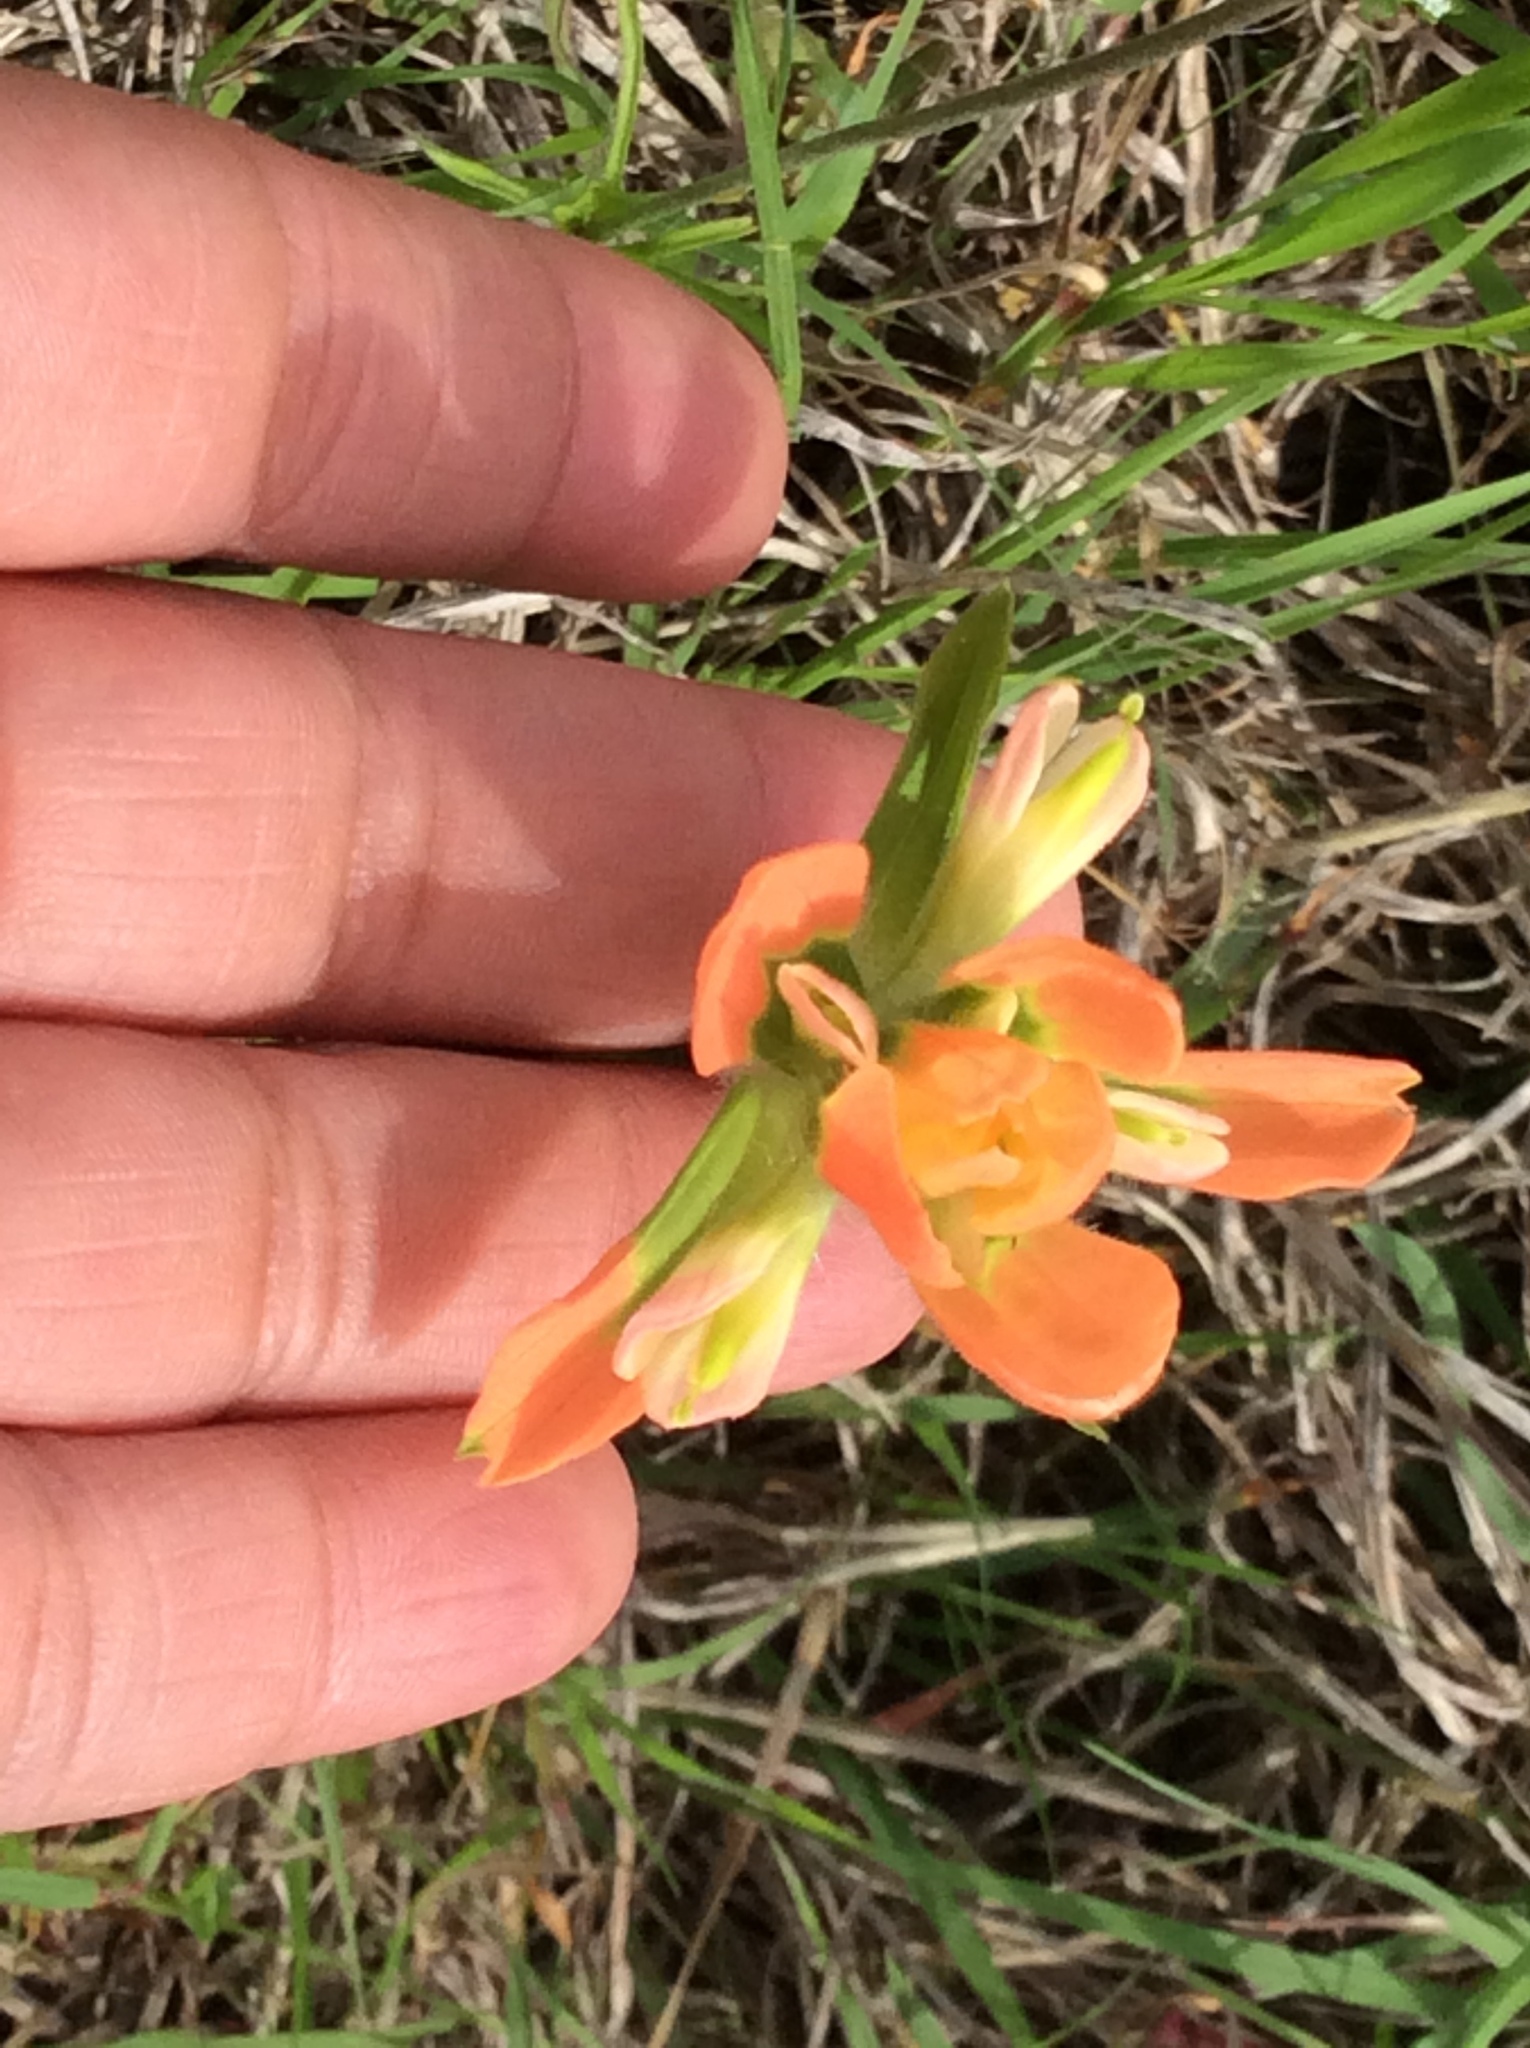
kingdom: Plantae
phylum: Tracheophyta
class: Magnoliopsida
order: Lamiales
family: Orobanchaceae
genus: Castilleja
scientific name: Castilleja indivisa
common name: Texas paintbrush
